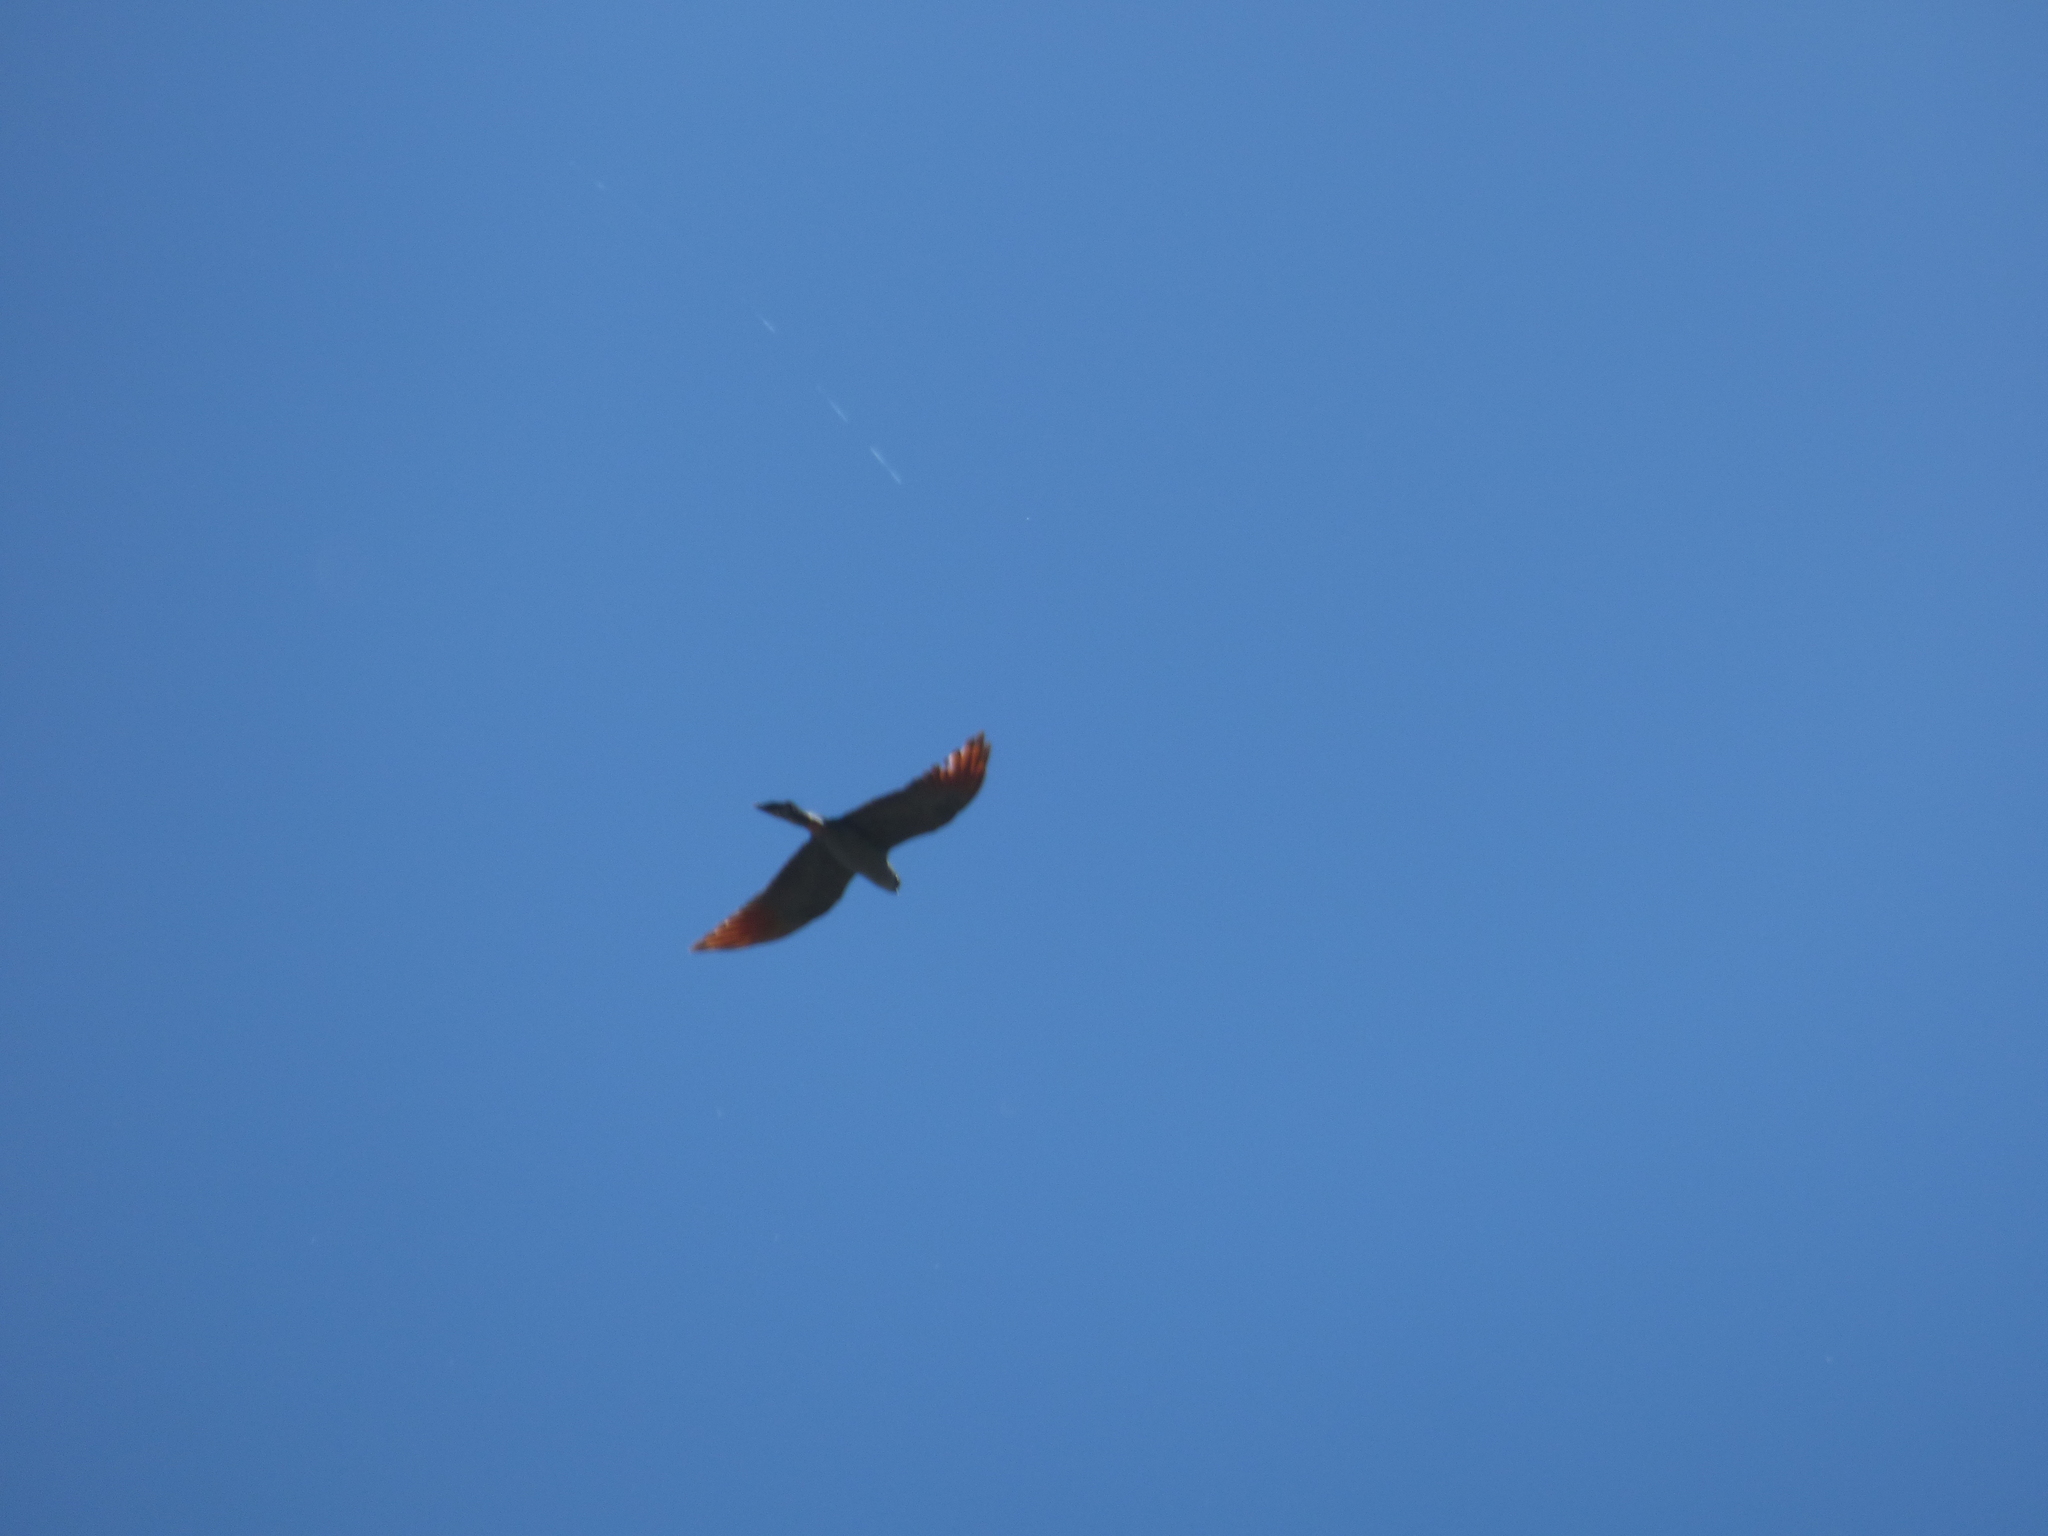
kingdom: Animalia
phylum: Chordata
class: Aves
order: Accipitriformes
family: Accipitridae
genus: Ictinia
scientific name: Ictinia plumbea
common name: Plumbeous kite
